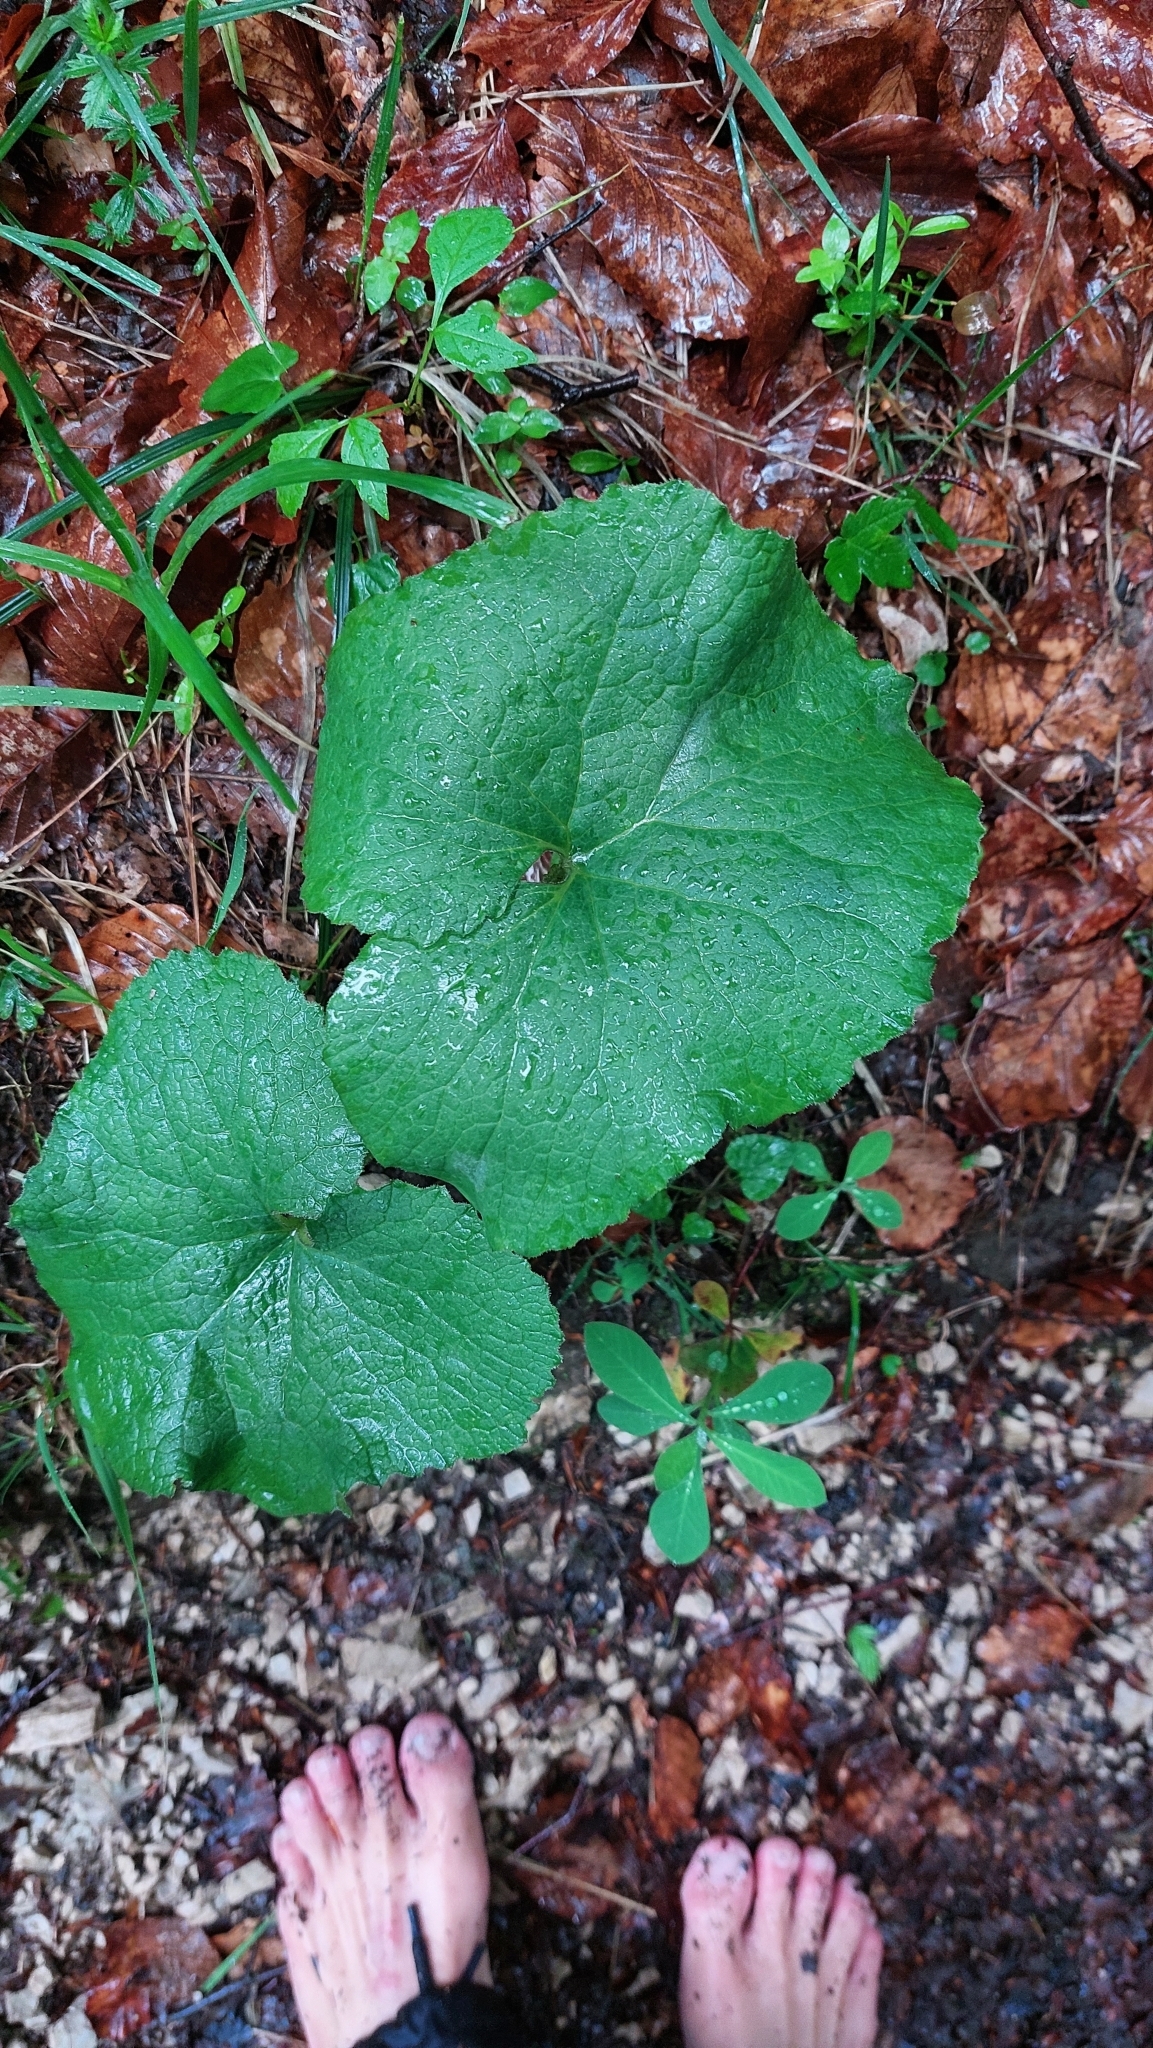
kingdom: Plantae
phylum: Tracheophyta
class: Magnoliopsida
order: Asterales
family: Asteraceae
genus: Tussilago
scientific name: Tussilago farfara
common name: Coltsfoot
